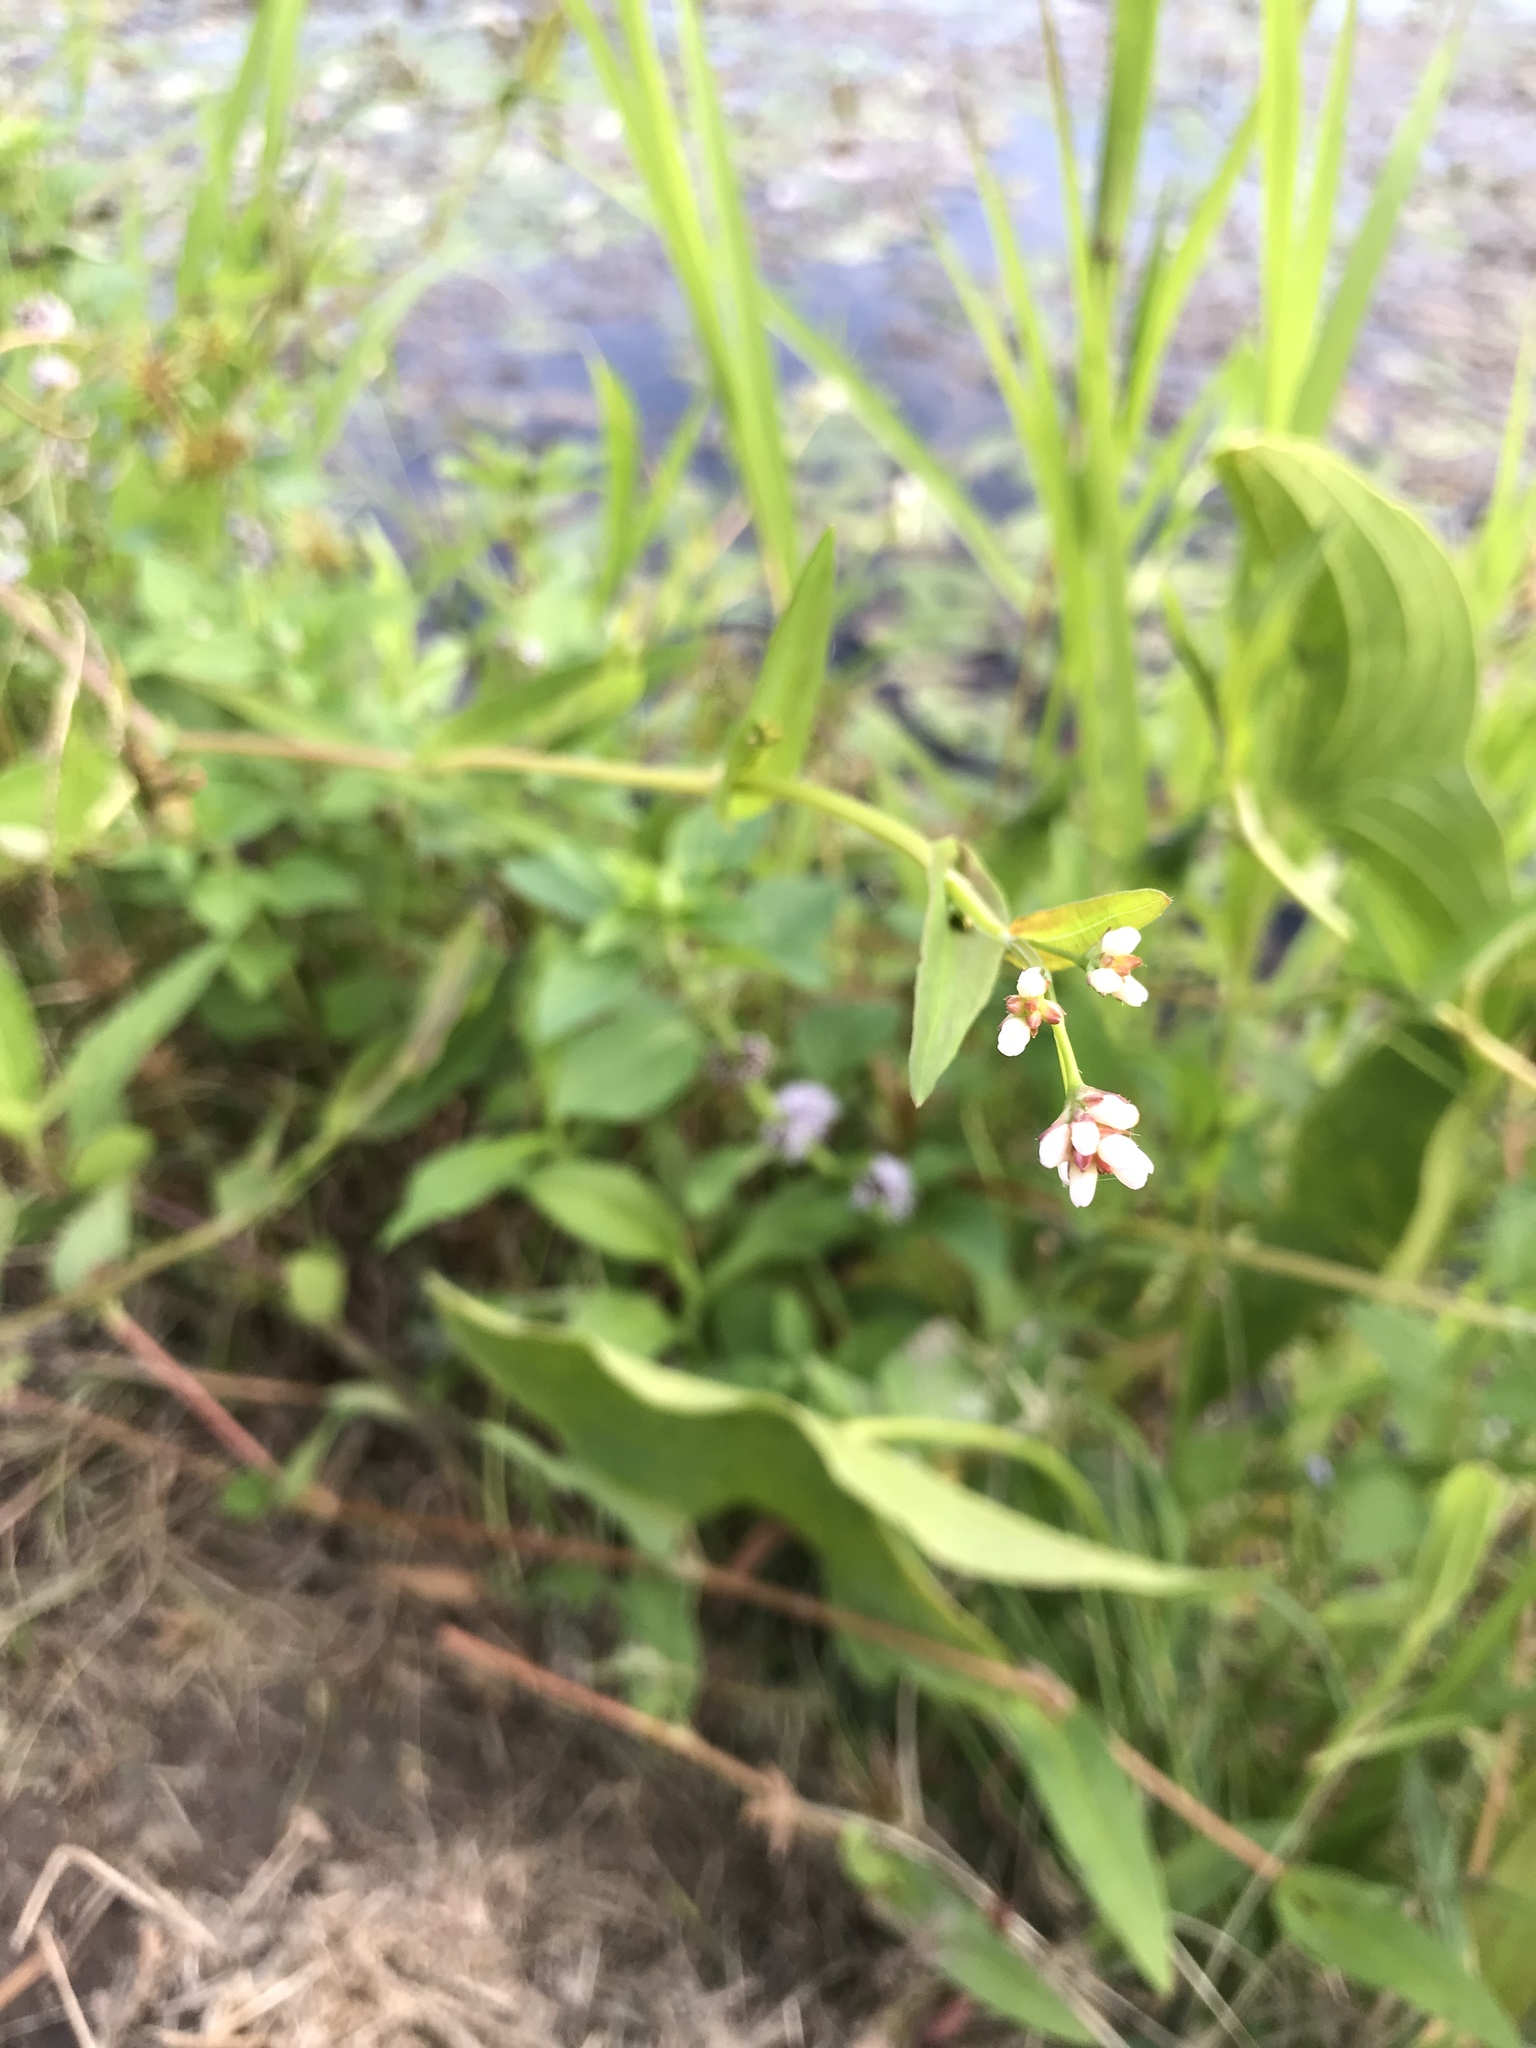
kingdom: Plantae
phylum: Tracheophyta
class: Magnoliopsida
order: Caryophyllales
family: Polygonaceae
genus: Persicaria
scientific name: Persicaria sagittata
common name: American tearthumb
